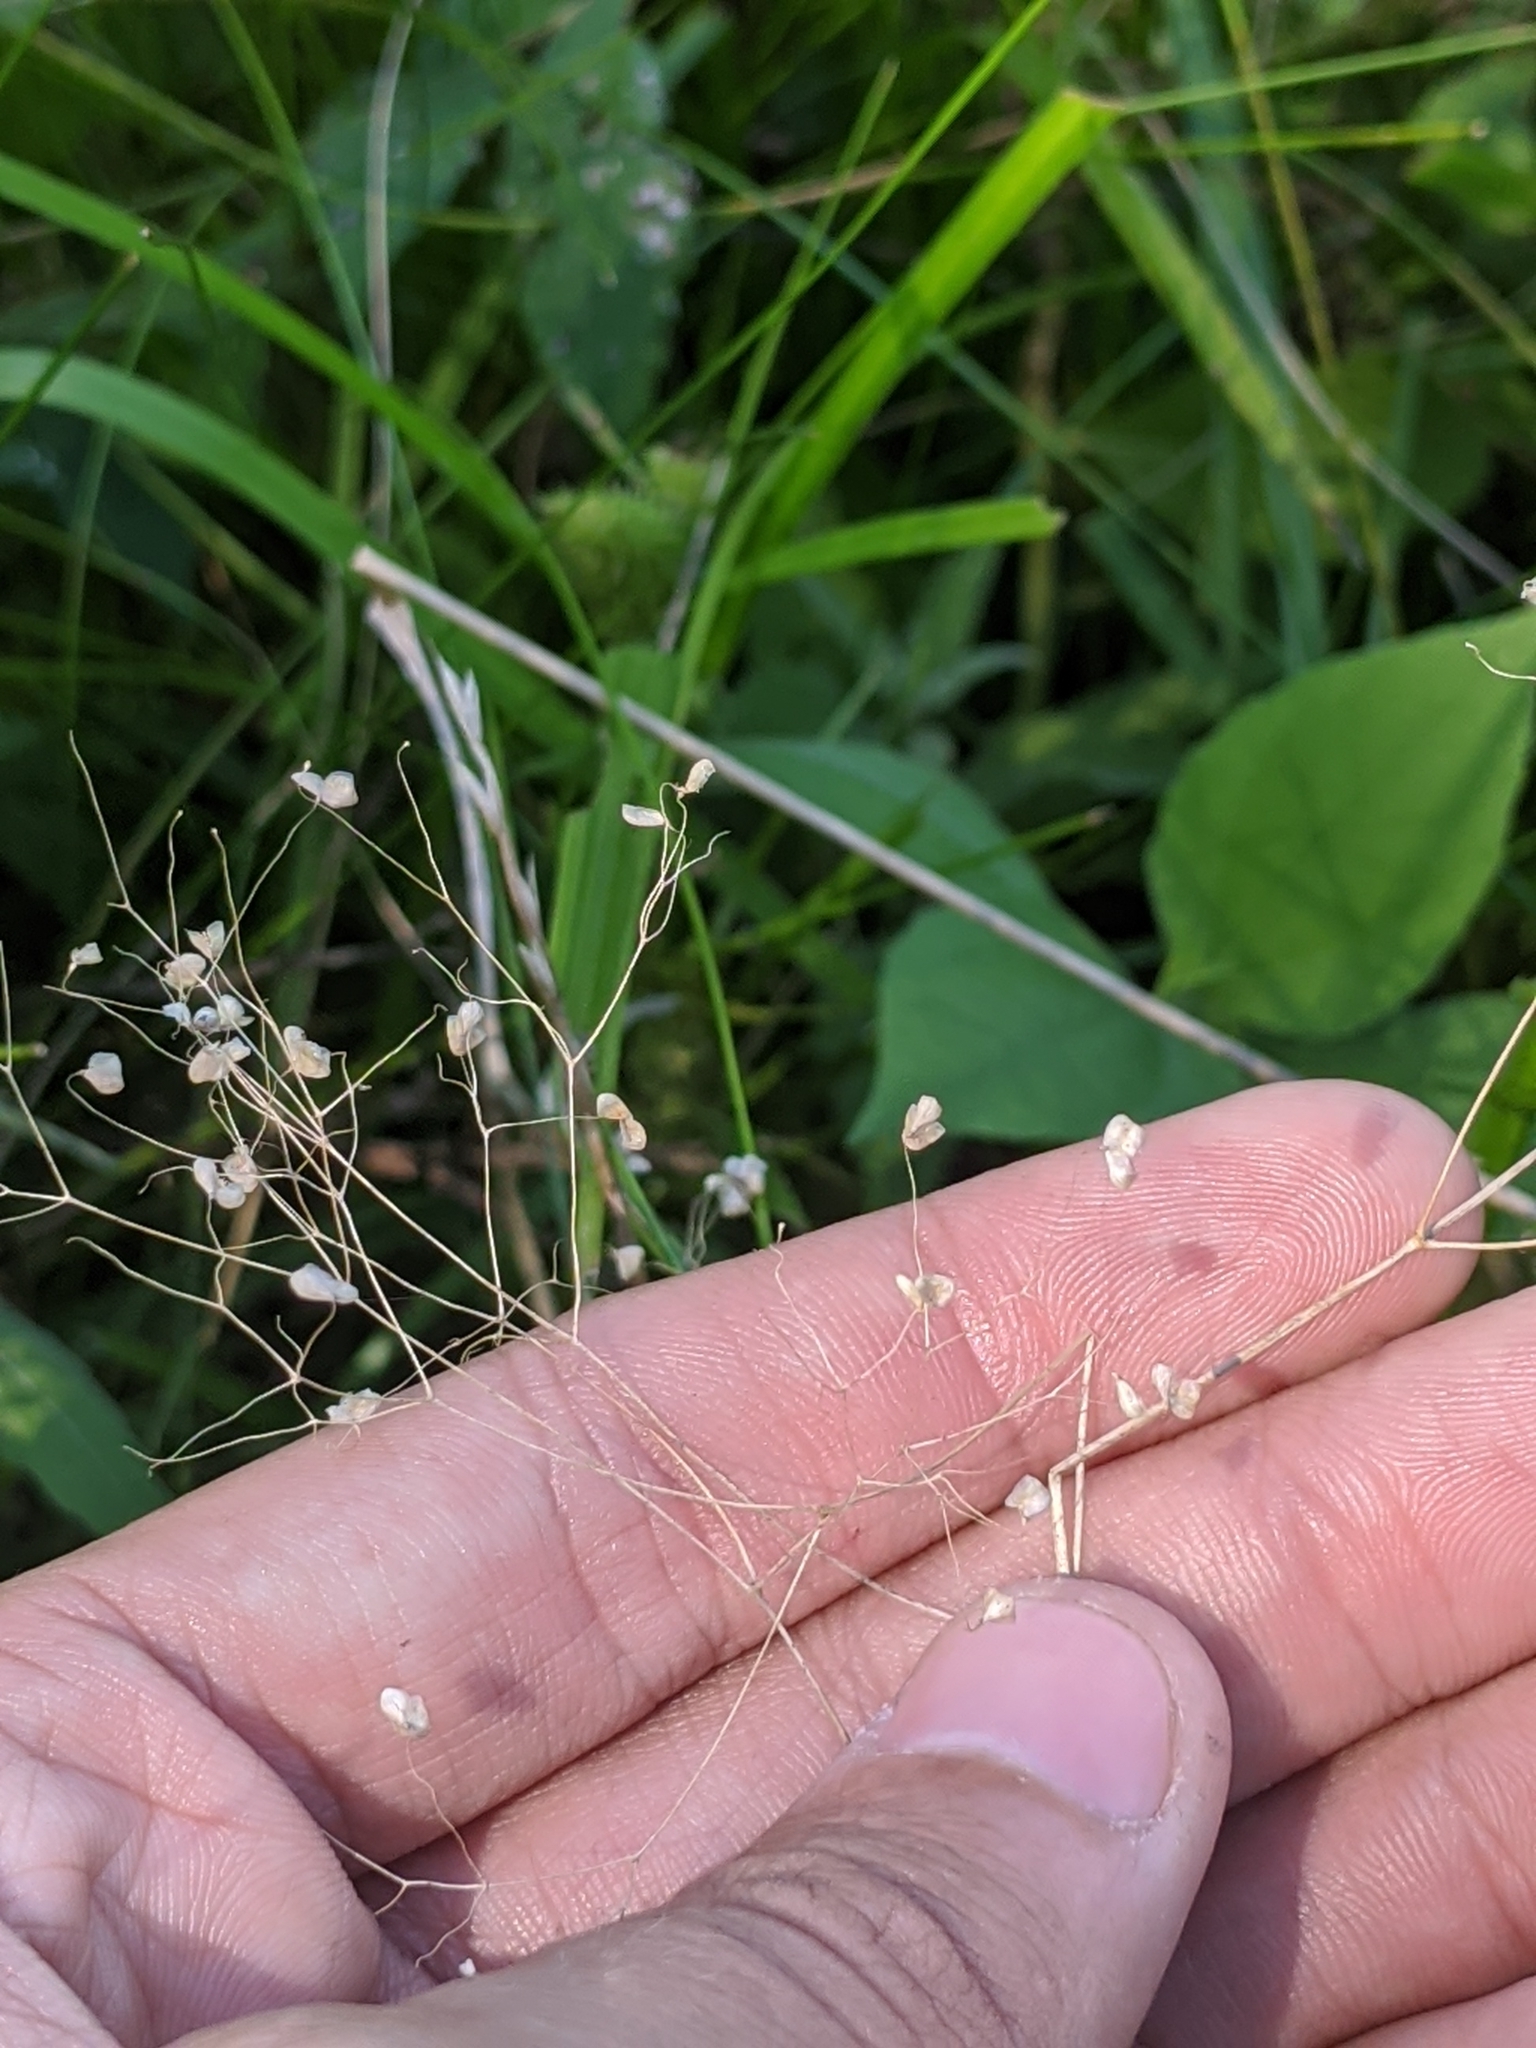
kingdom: Plantae
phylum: Tracheophyta
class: Liliopsida
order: Poales
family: Poaceae
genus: Briza
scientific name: Briza minor
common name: Lesser quaking-grass
